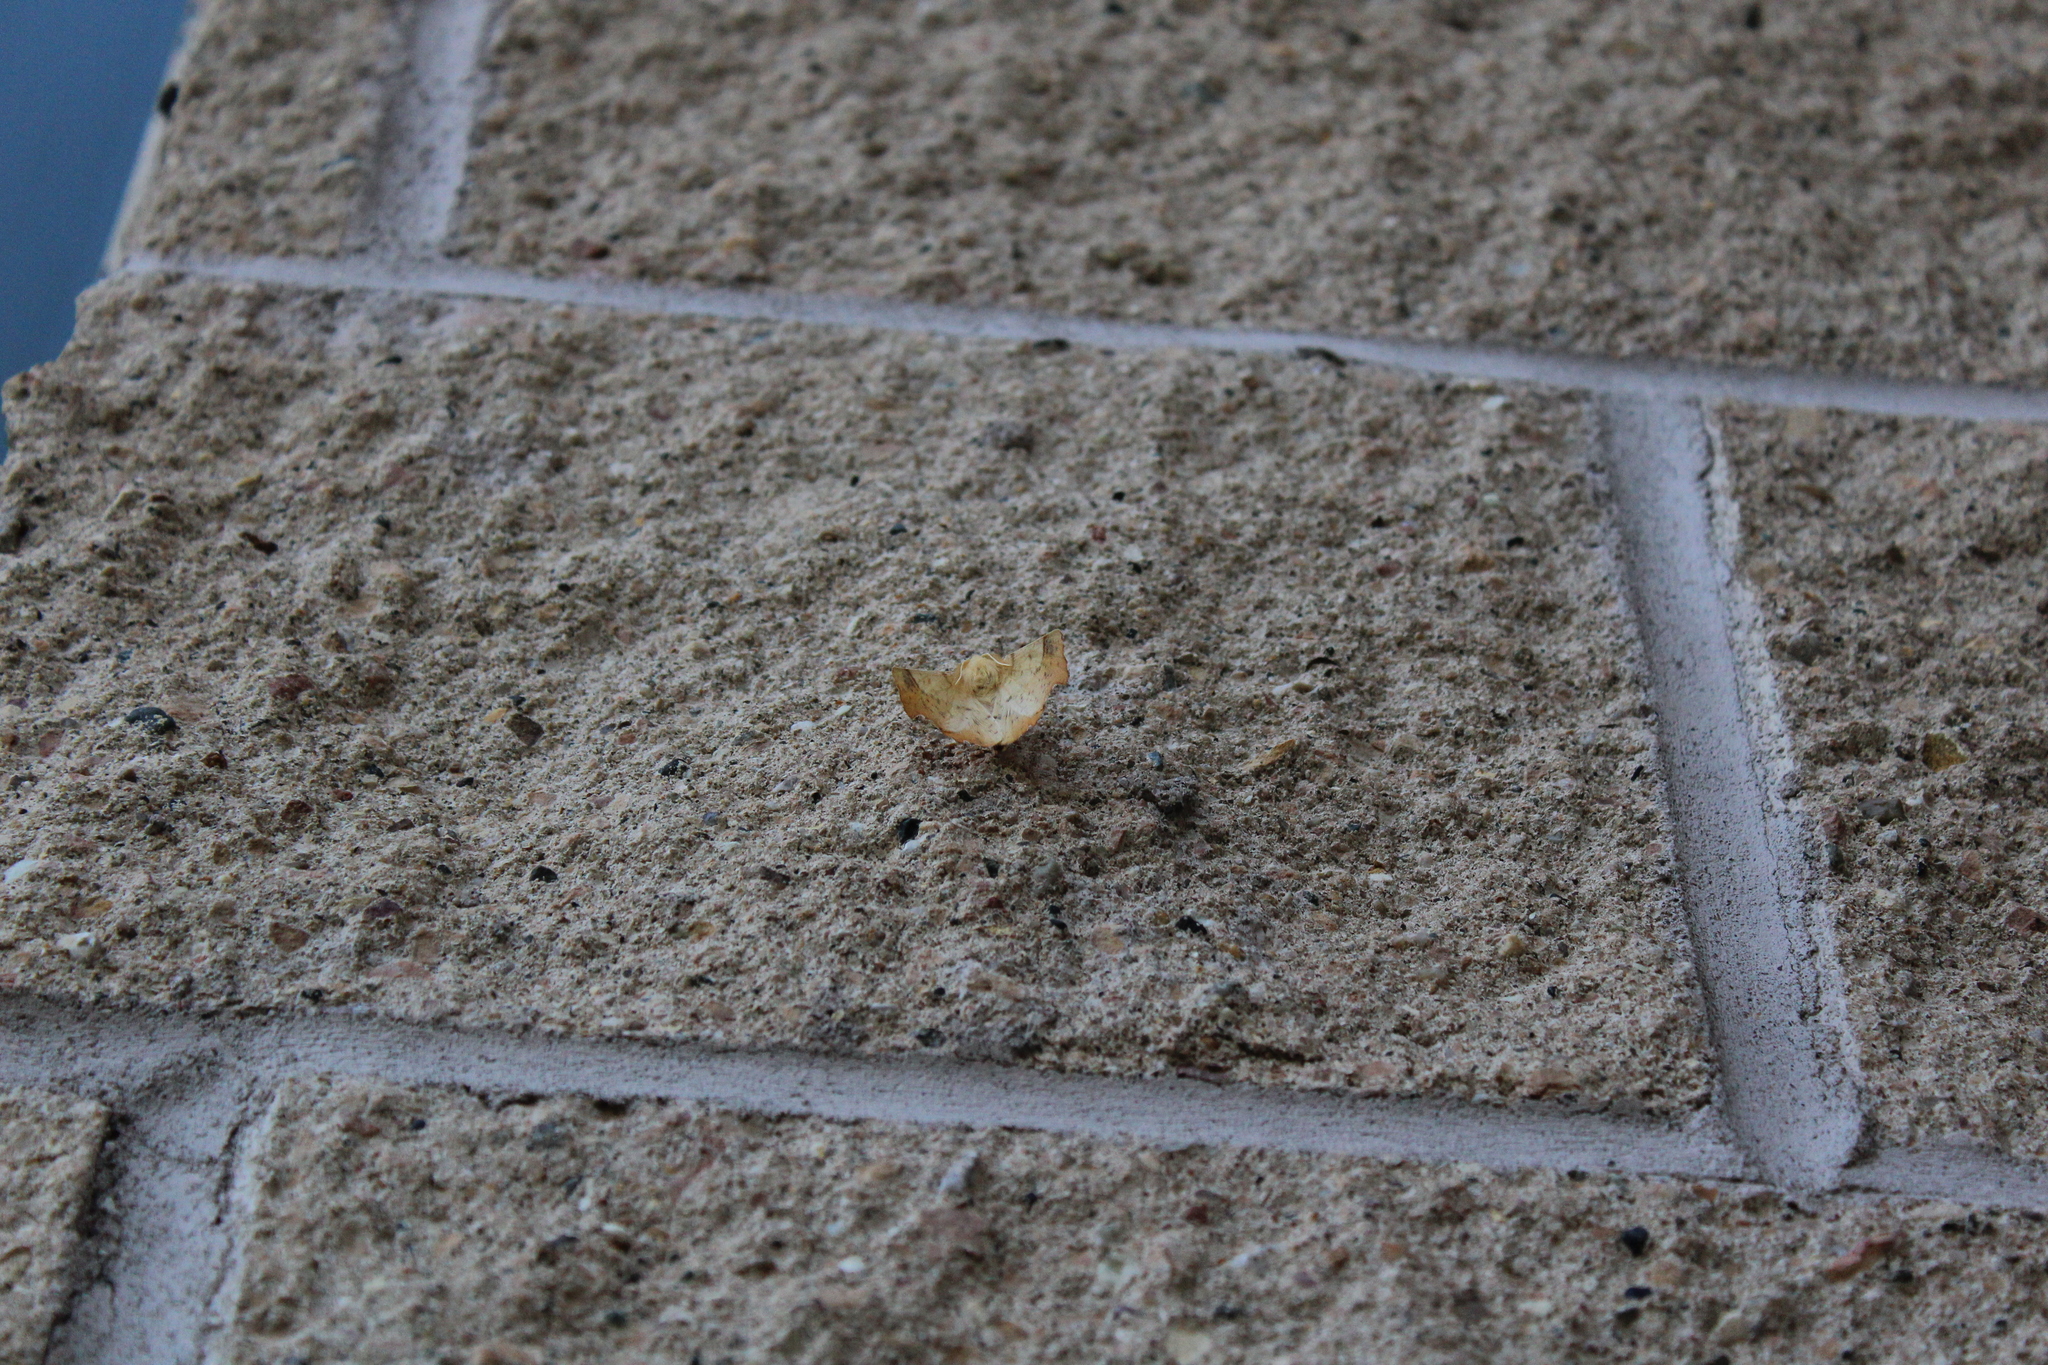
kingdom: Animalia
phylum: Arthropoda
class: Insecta
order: Lepidoptera
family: Geometridae
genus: Ennomos
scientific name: Ennomos magnaria
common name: Maple spanworm
